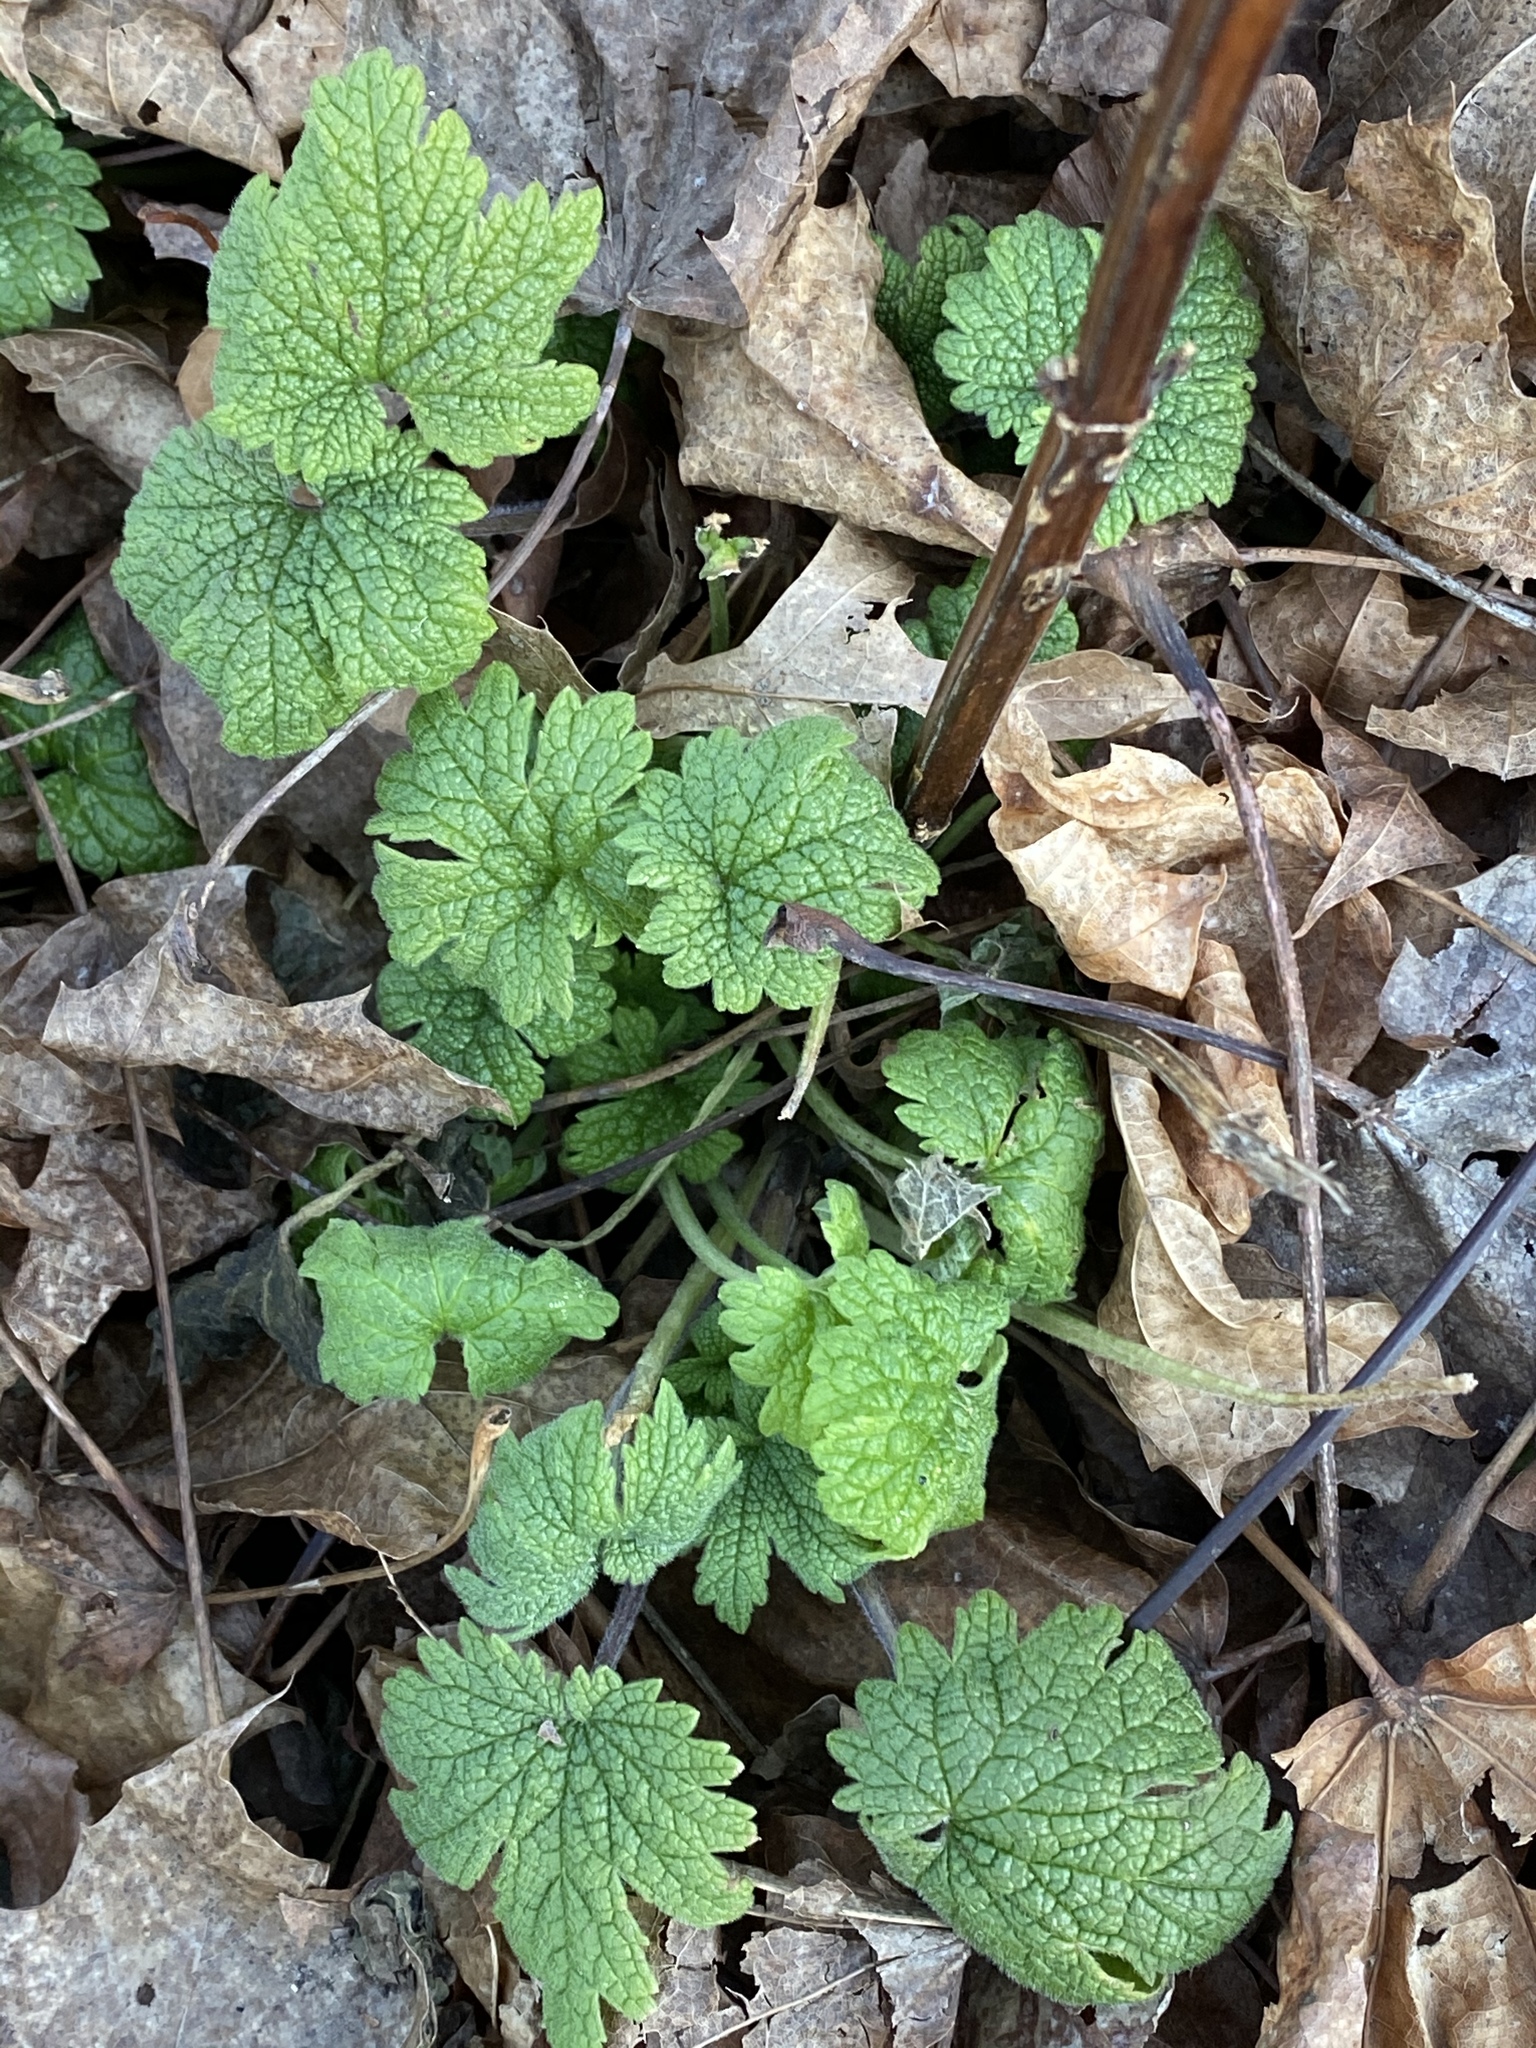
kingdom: Plantae
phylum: Tracheophyta
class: Magnoliopsida
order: Lamiales
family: Lamiaceae
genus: Leonurus
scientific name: Leonurus cardiaca
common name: Motherwort
